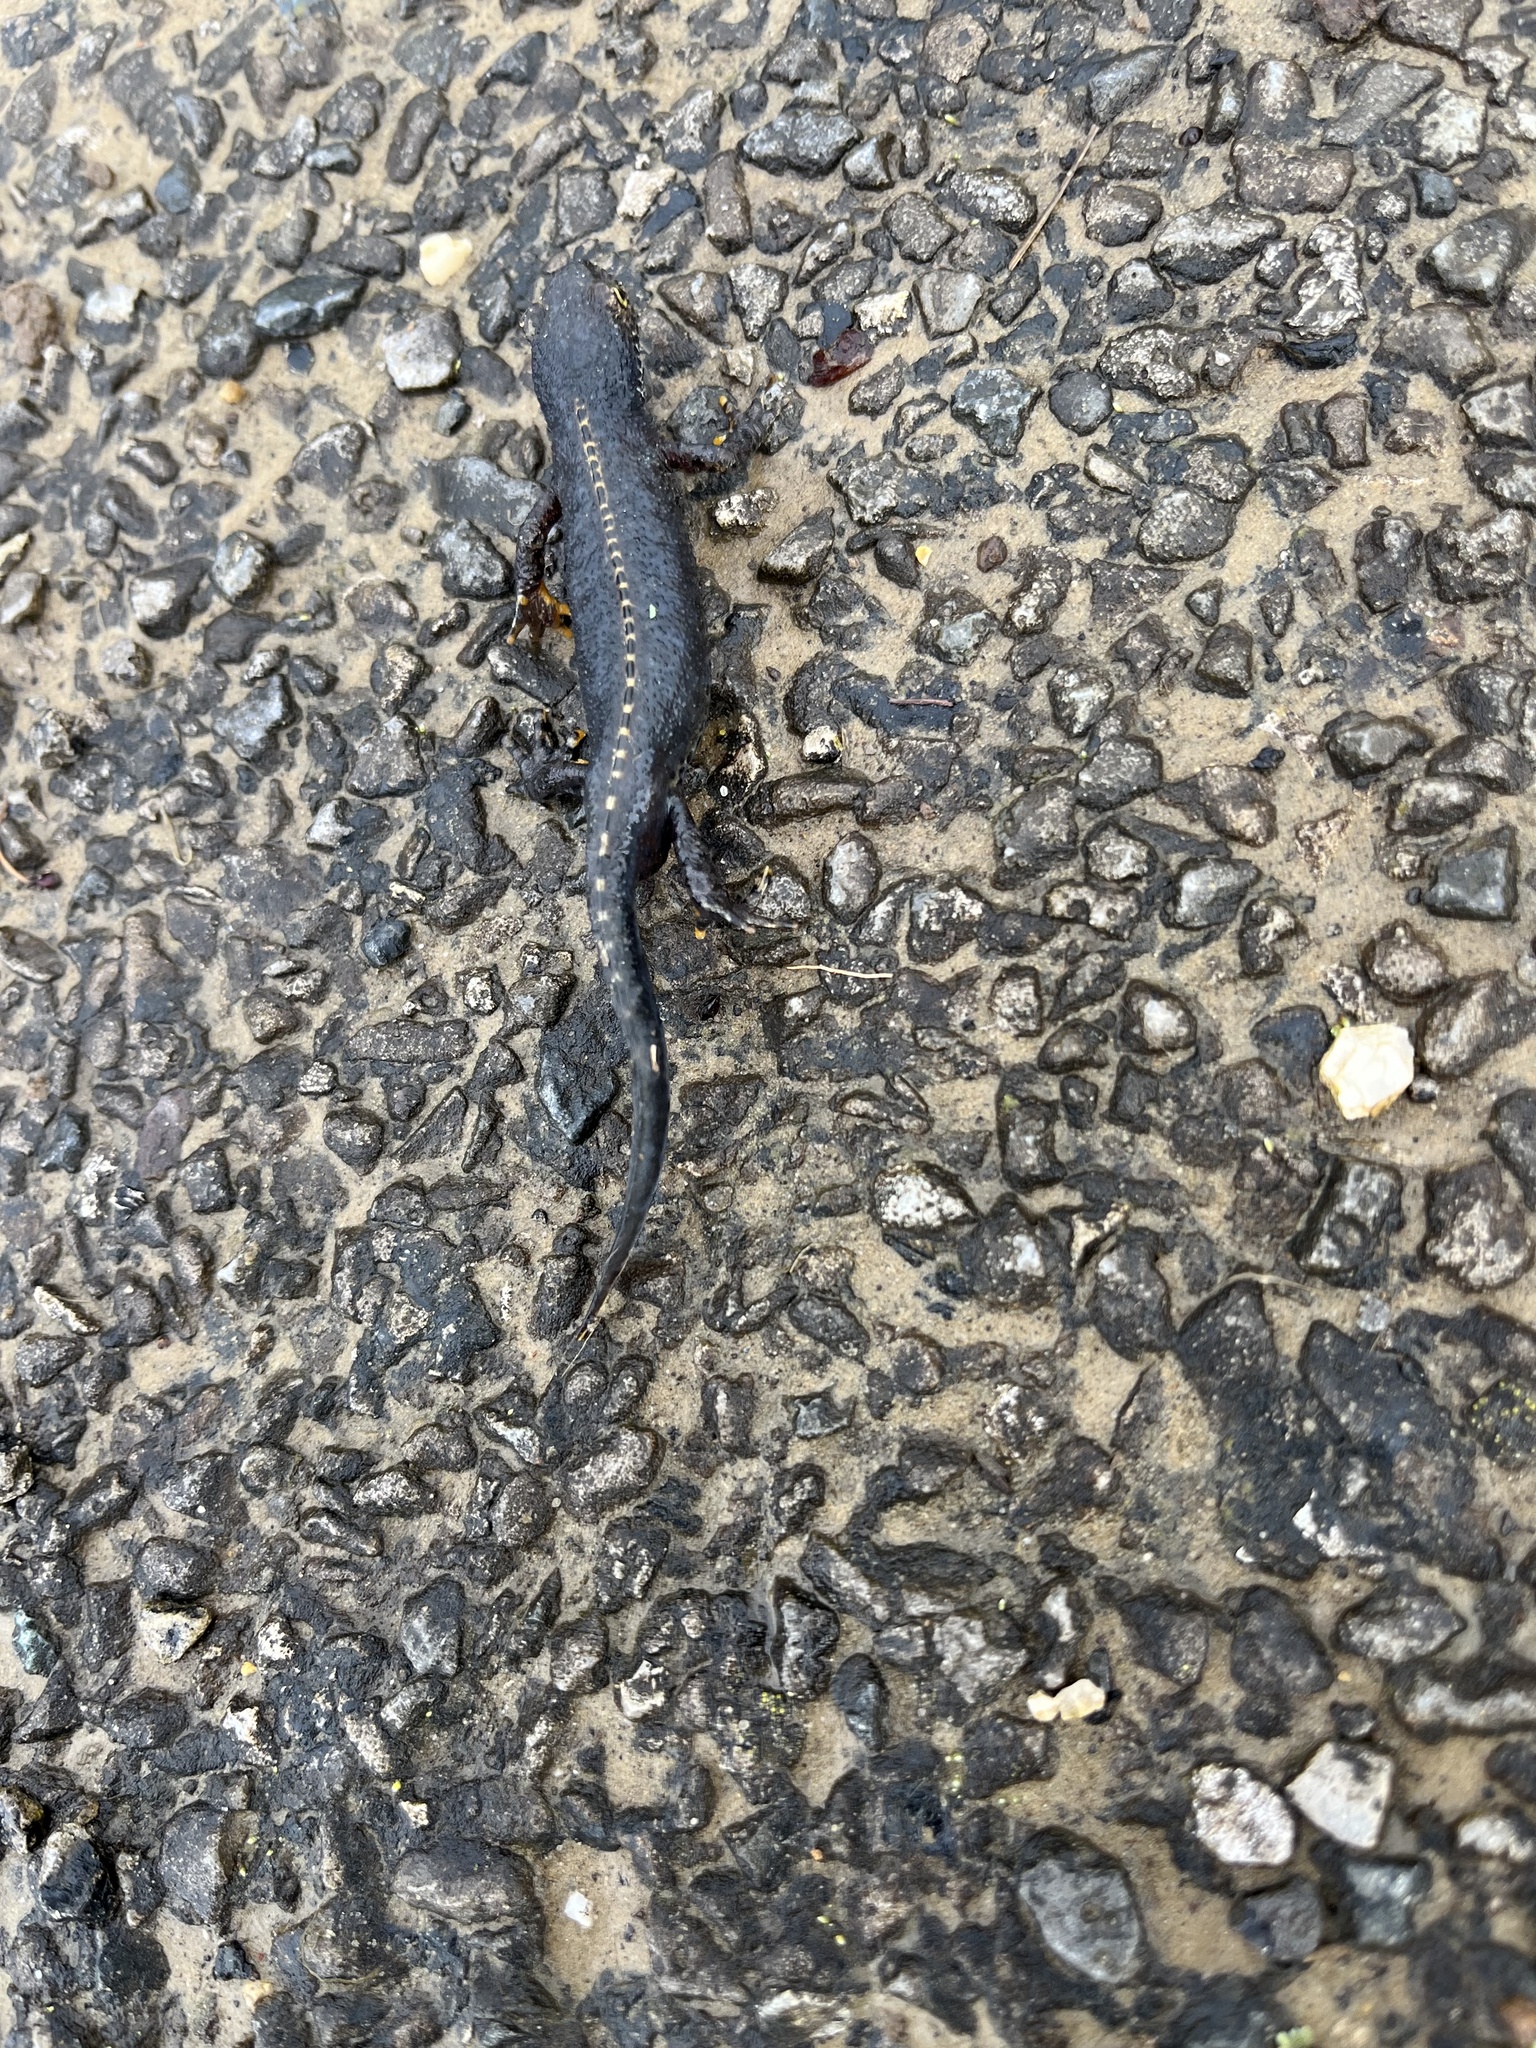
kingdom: Animalia
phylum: Chordata
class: Amphibia
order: Caudata
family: Salamandridae
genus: Ichthyosaura
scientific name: Ichthyosaura alpestris
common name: Alpine newt
